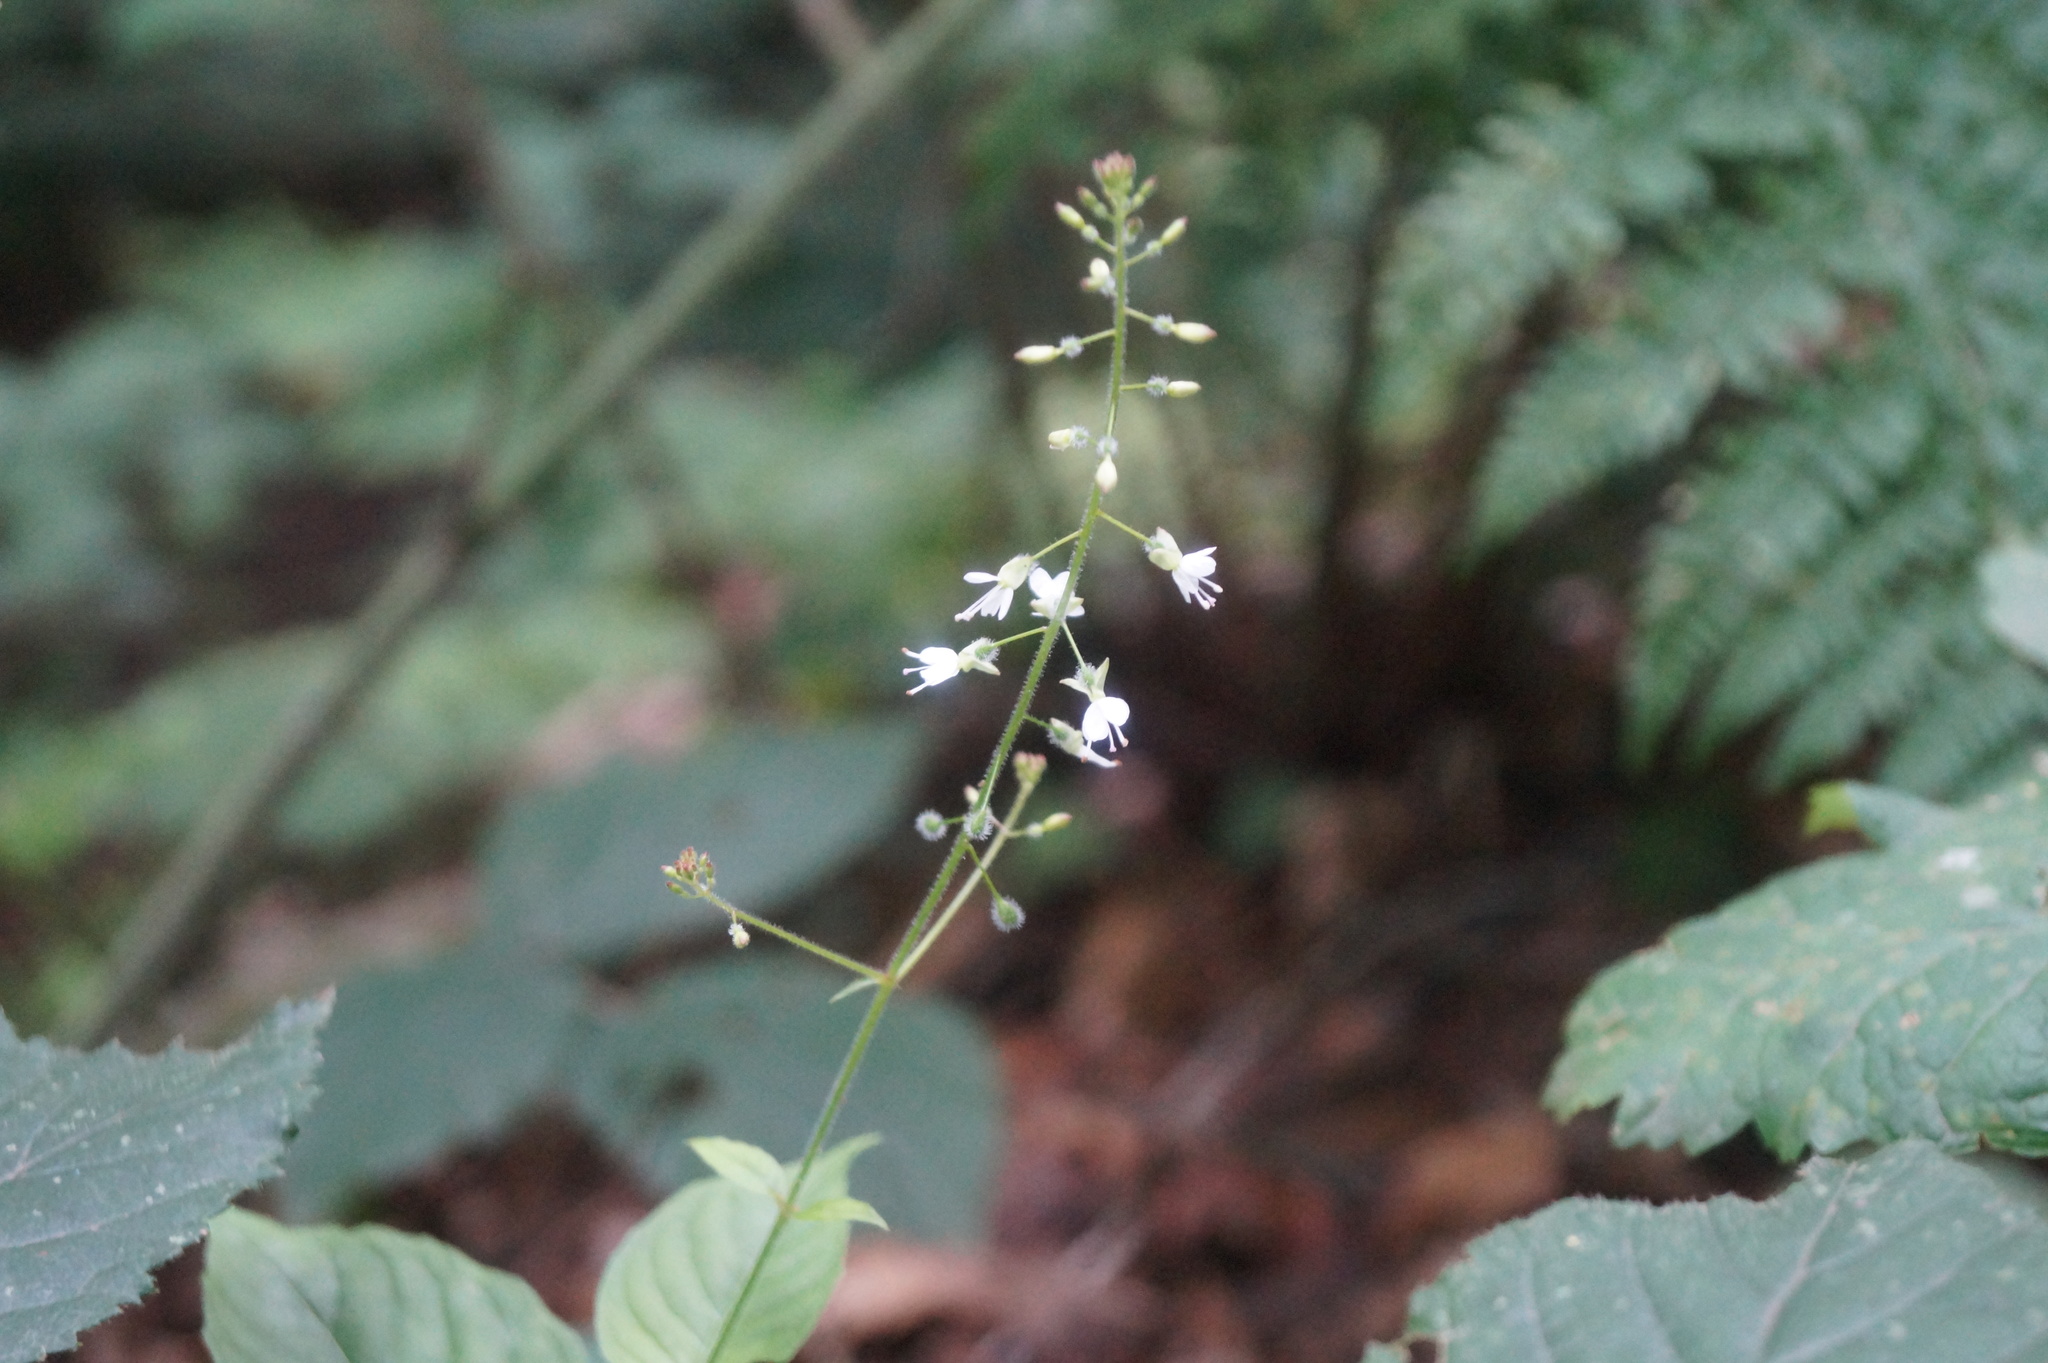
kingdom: Plantae
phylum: Tracheophyta
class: Magnoliopsida
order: Myrtales
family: Onagraceae
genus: Circaea
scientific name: Circaea lutetiana
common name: Enchanter's-nightshade
